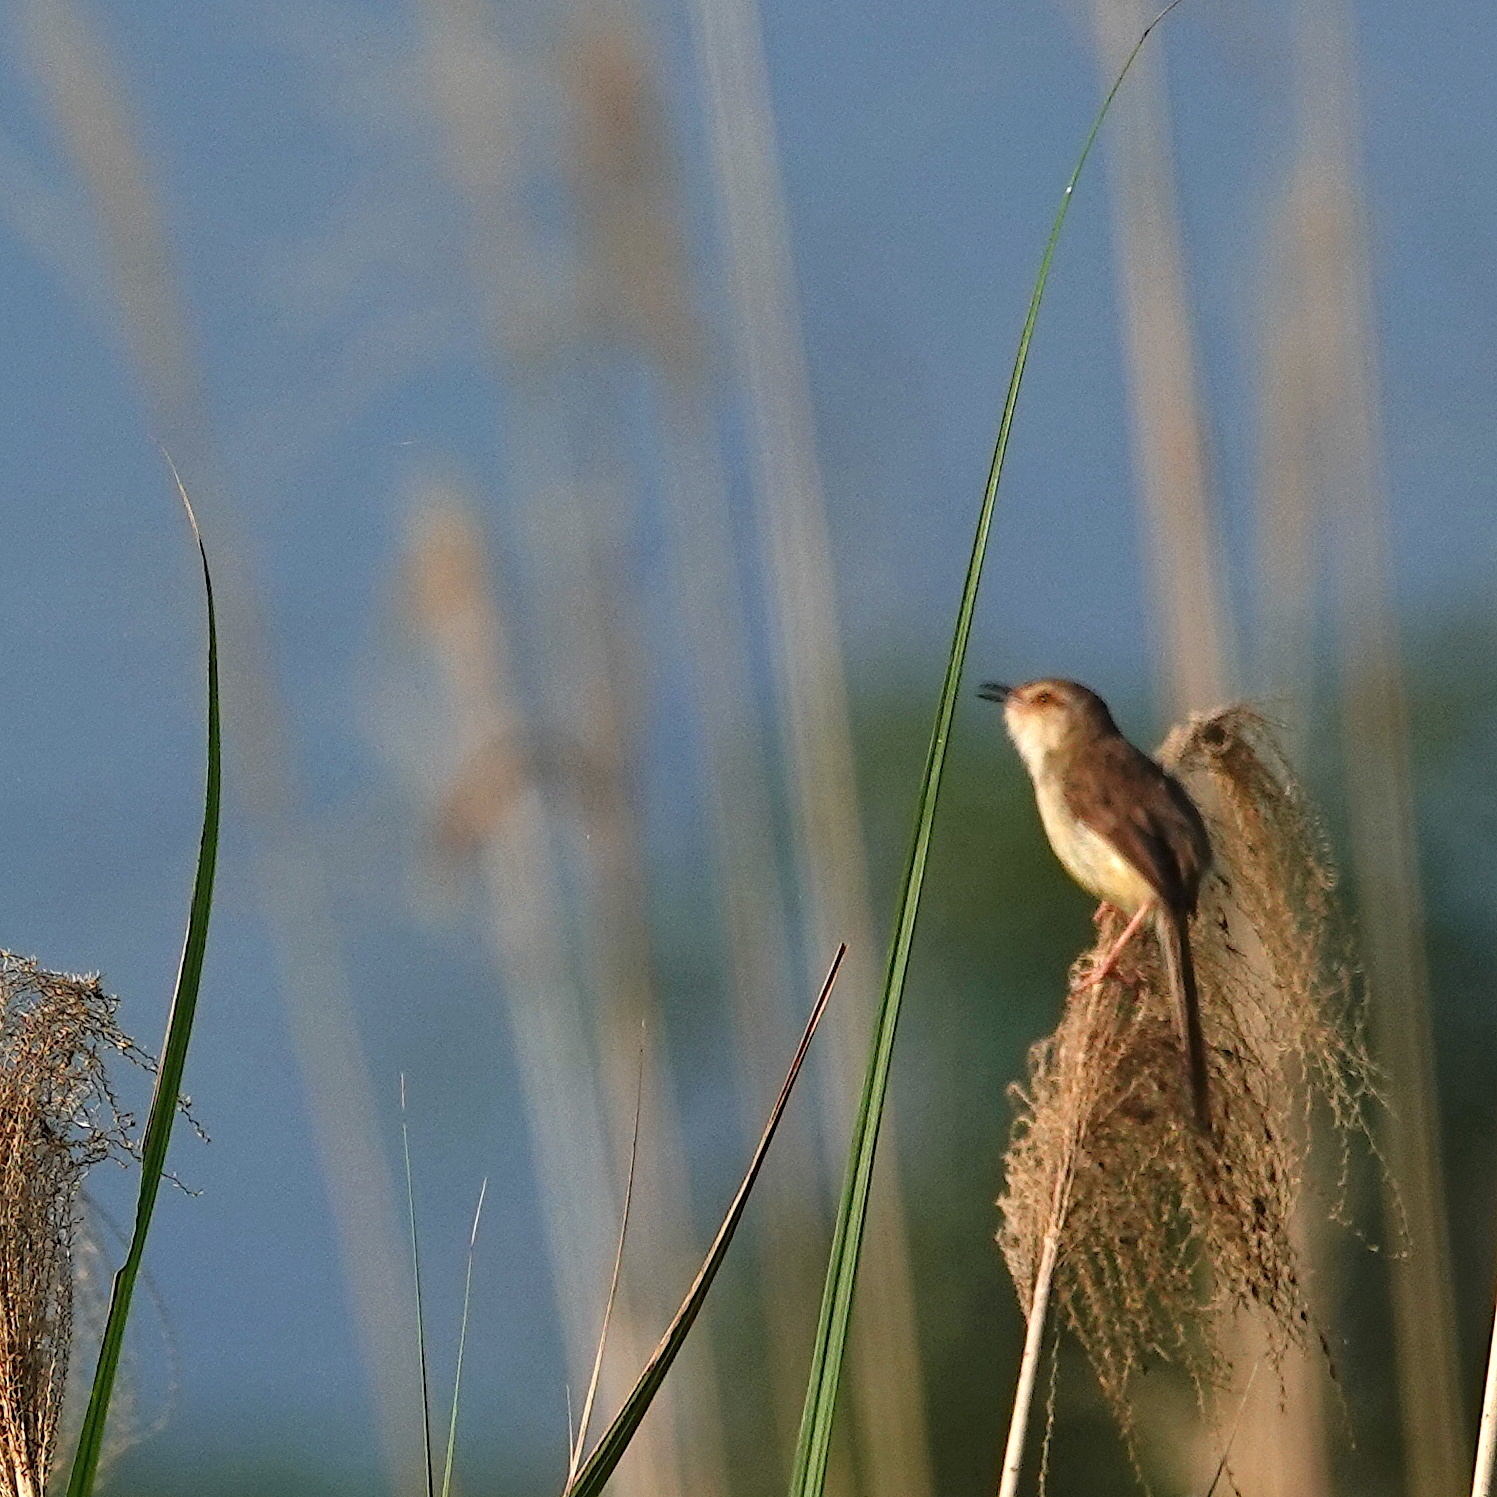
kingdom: Animalia
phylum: Chordata
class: Aves
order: Passeriformes
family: Cisticolidae
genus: Prinia
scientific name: Prinia inornata
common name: Plain prinia
